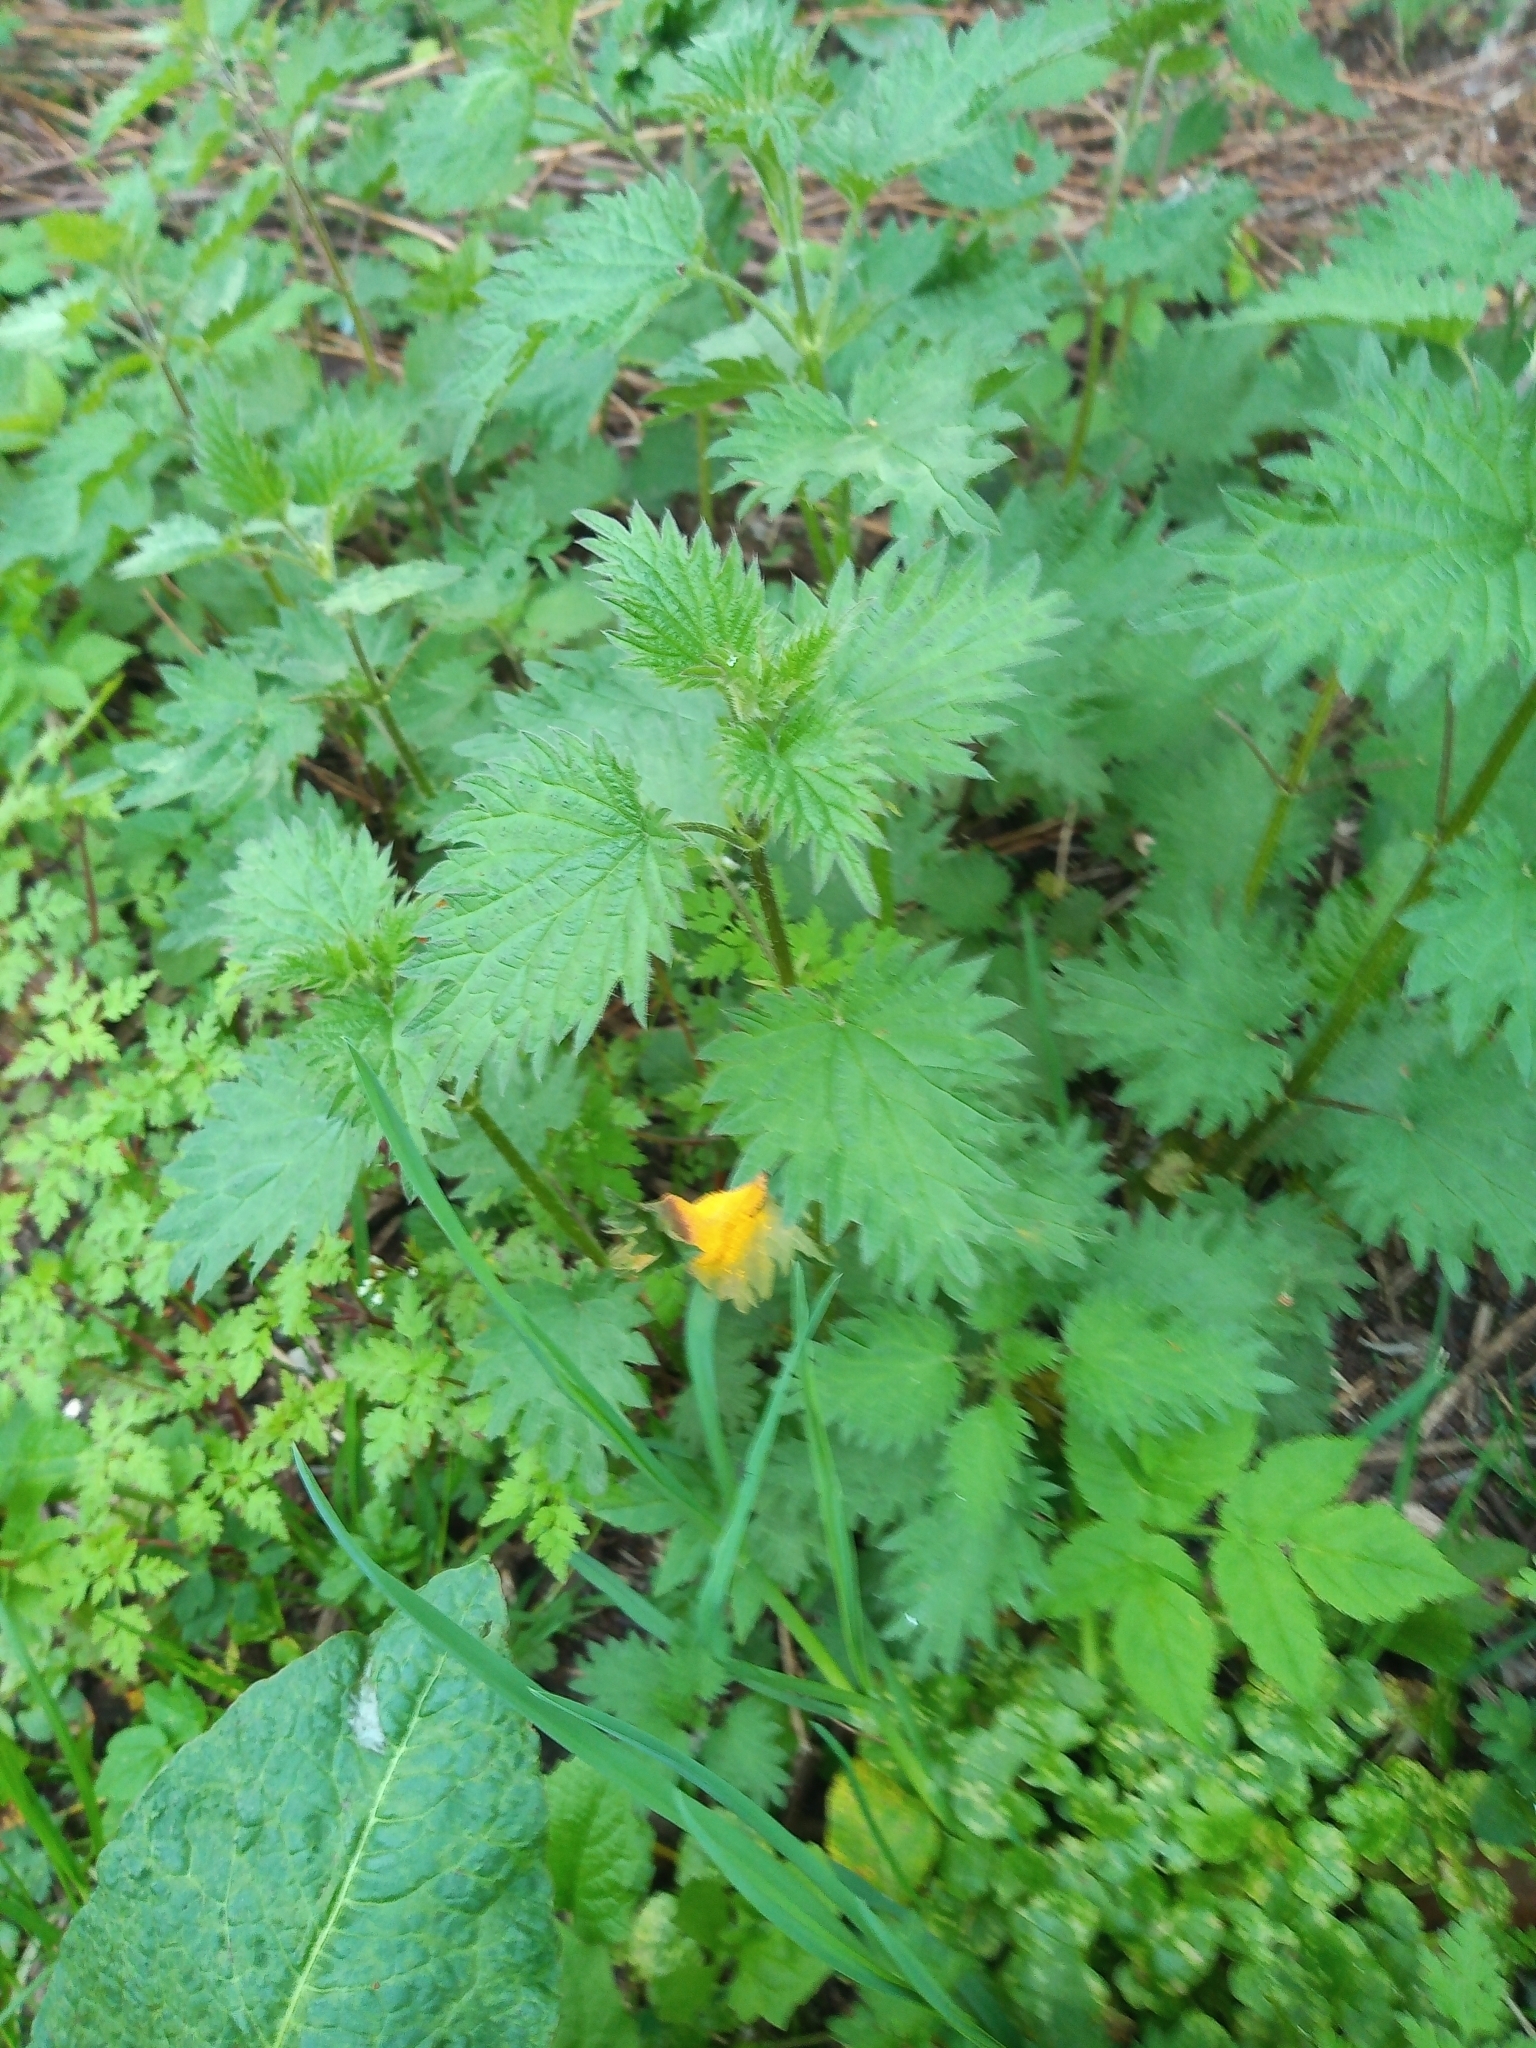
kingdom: Fungi
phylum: Basidiomycota
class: Pucciniomycetes
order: Pucciniales
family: Pucciniaceae
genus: Puccinia
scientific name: Puccinia urticata
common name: Nettle clustercup rust fungus
